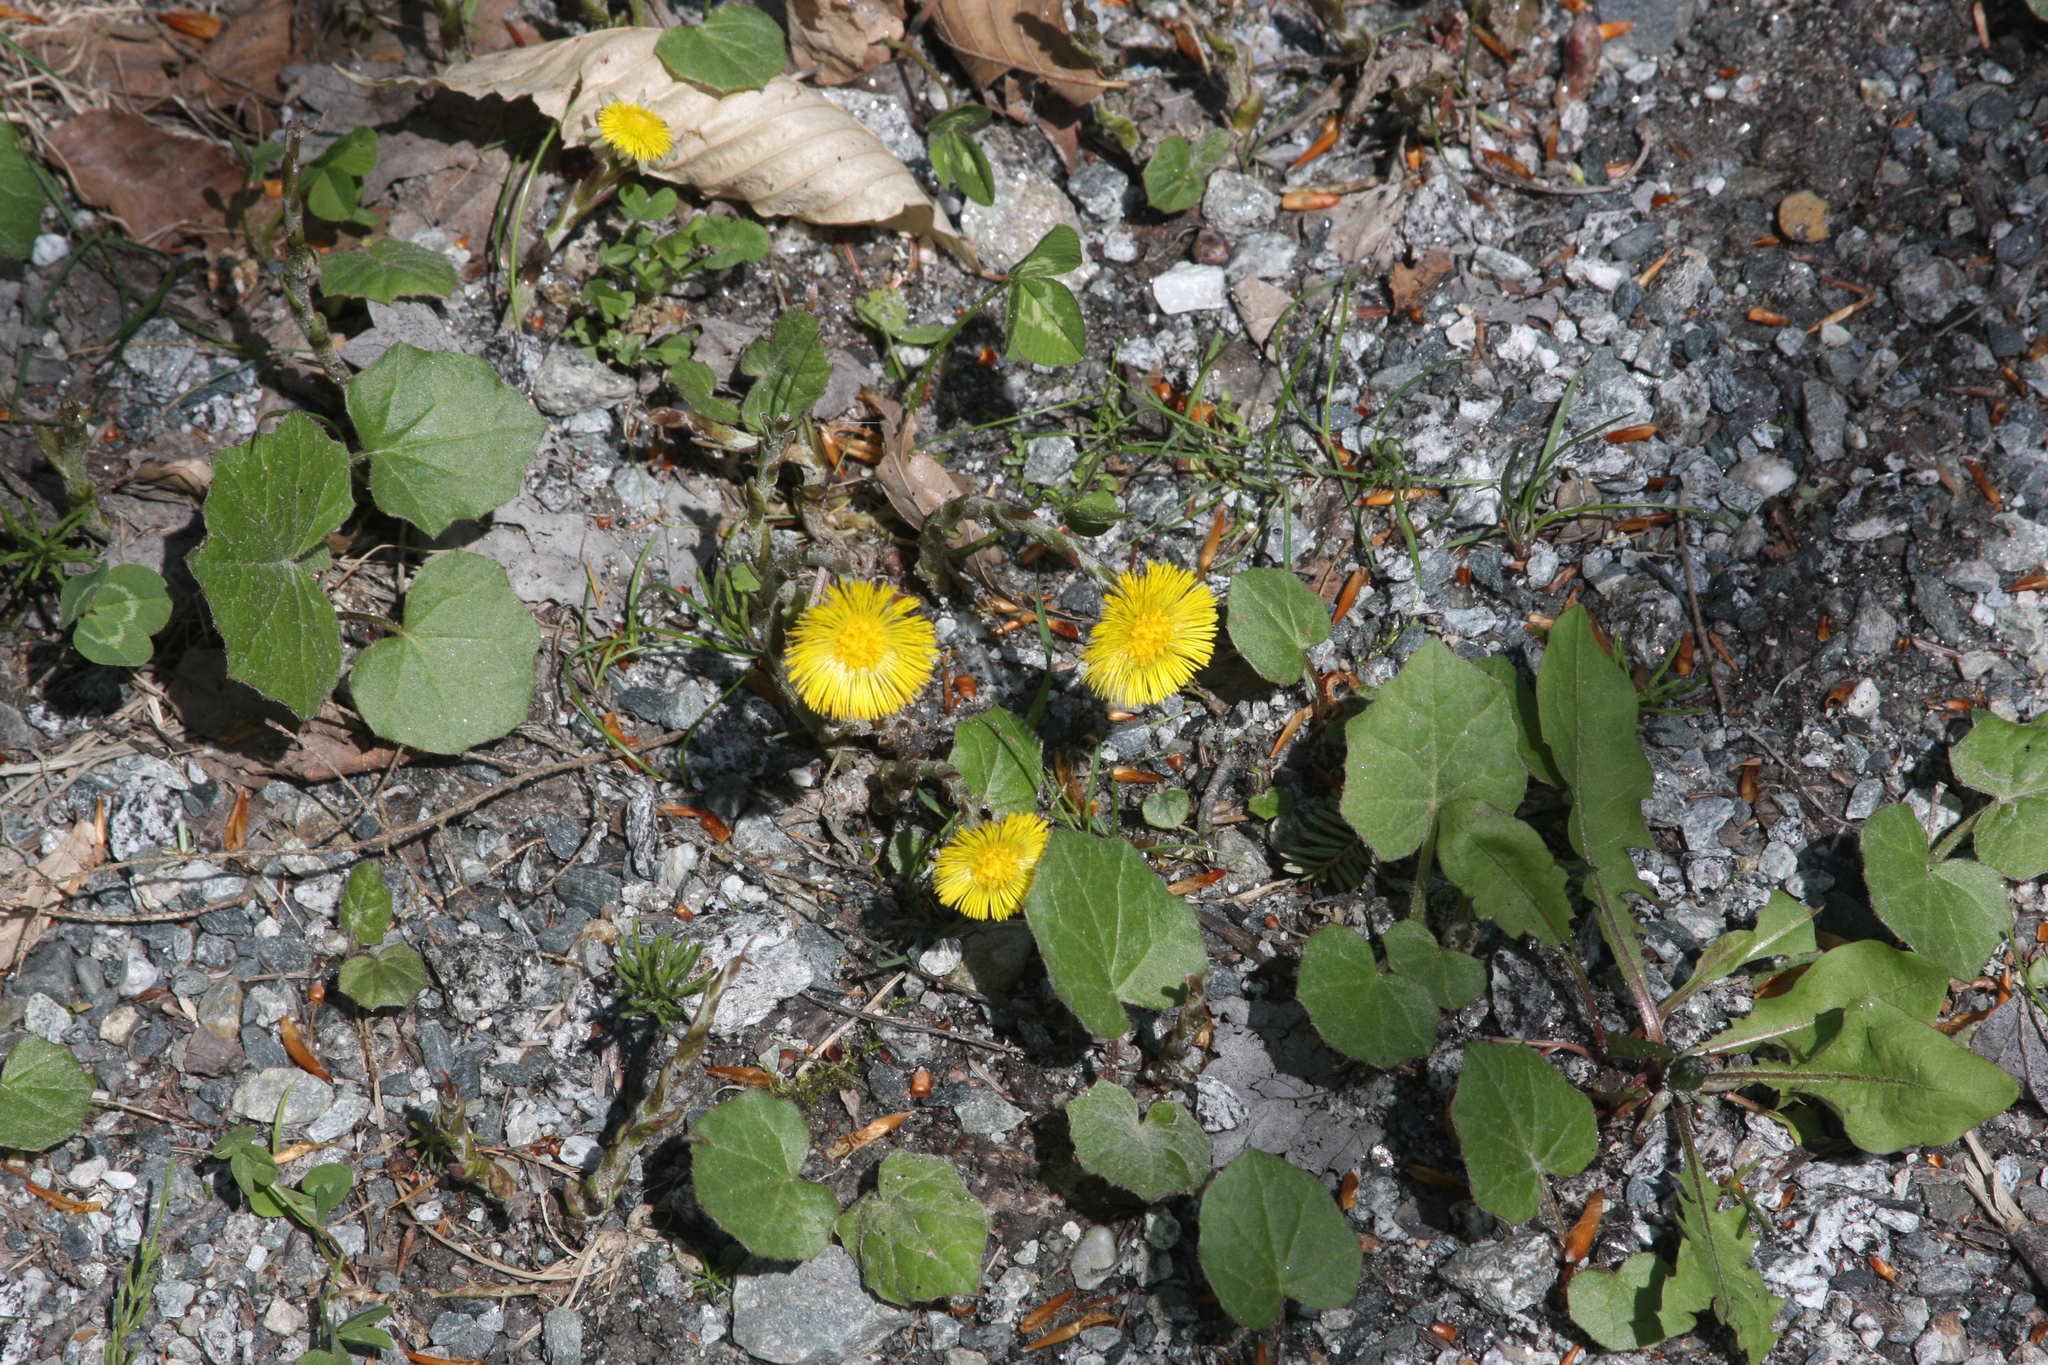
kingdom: Plantae
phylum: Tracheophyta
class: Magnoliopsida
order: Asterales
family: Asteraceae
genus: Tussilago
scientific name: Tussilago farfara
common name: Coltsfoot
